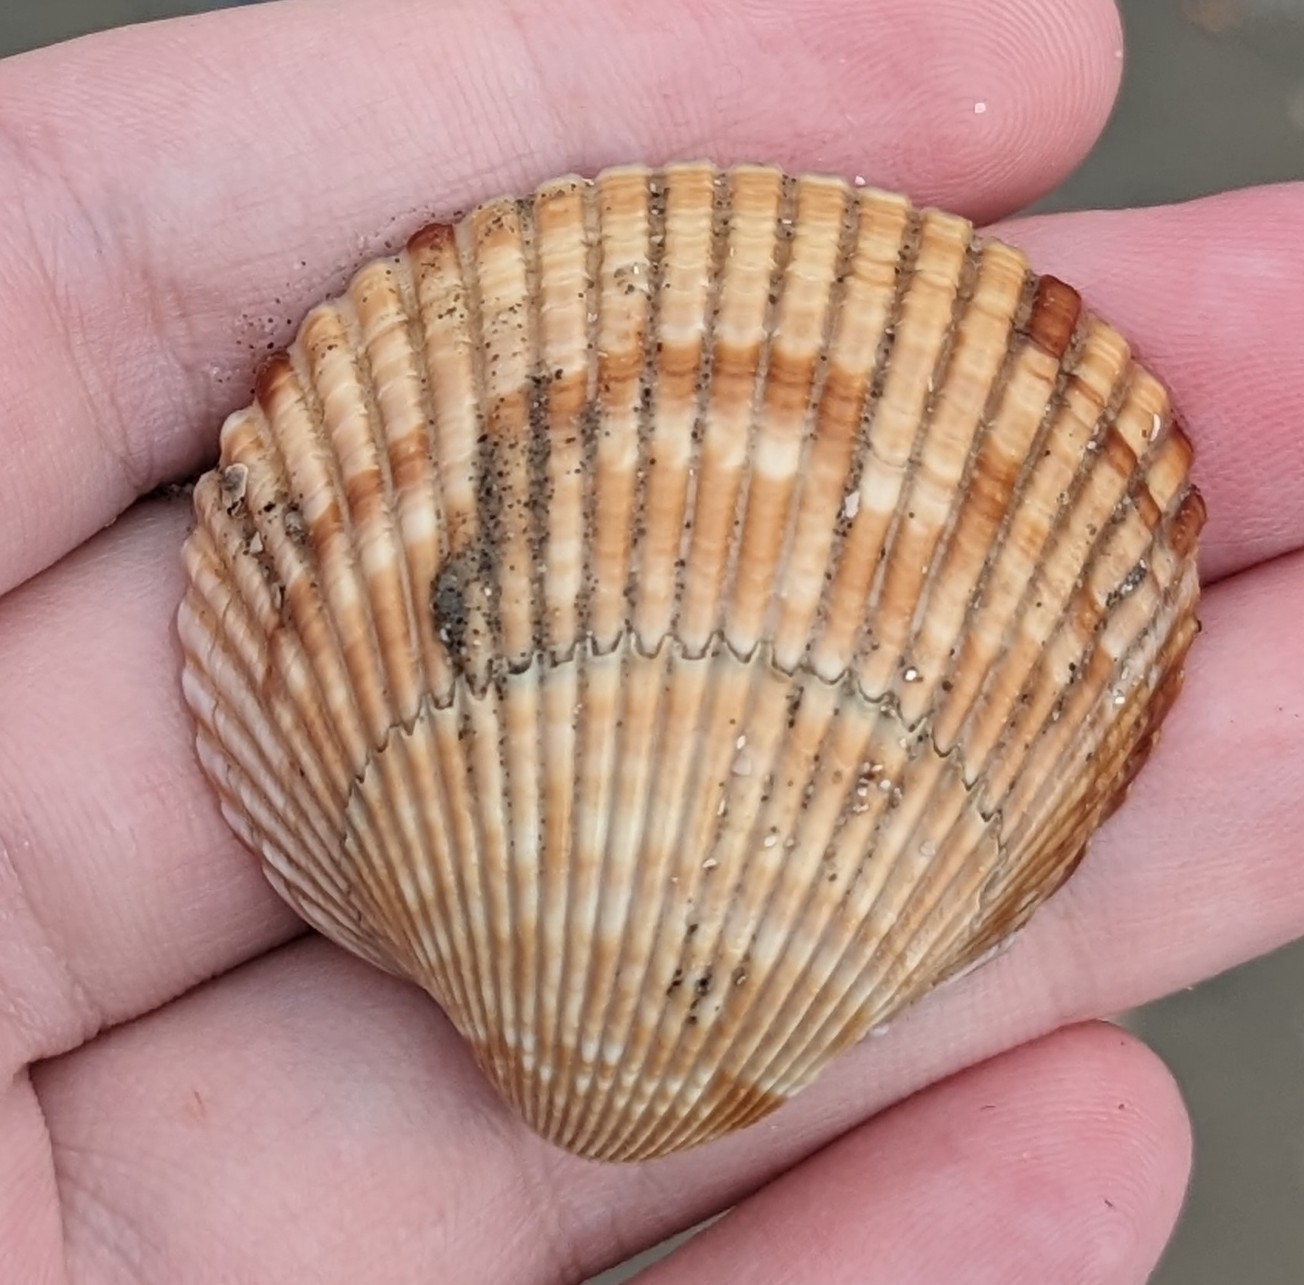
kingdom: Animalia
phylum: Mollusca
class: Bivalvia
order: Cardiida
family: Cardiidae
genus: Dinocardium
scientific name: Dinocardium robustum
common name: Atlantic giant cockle
